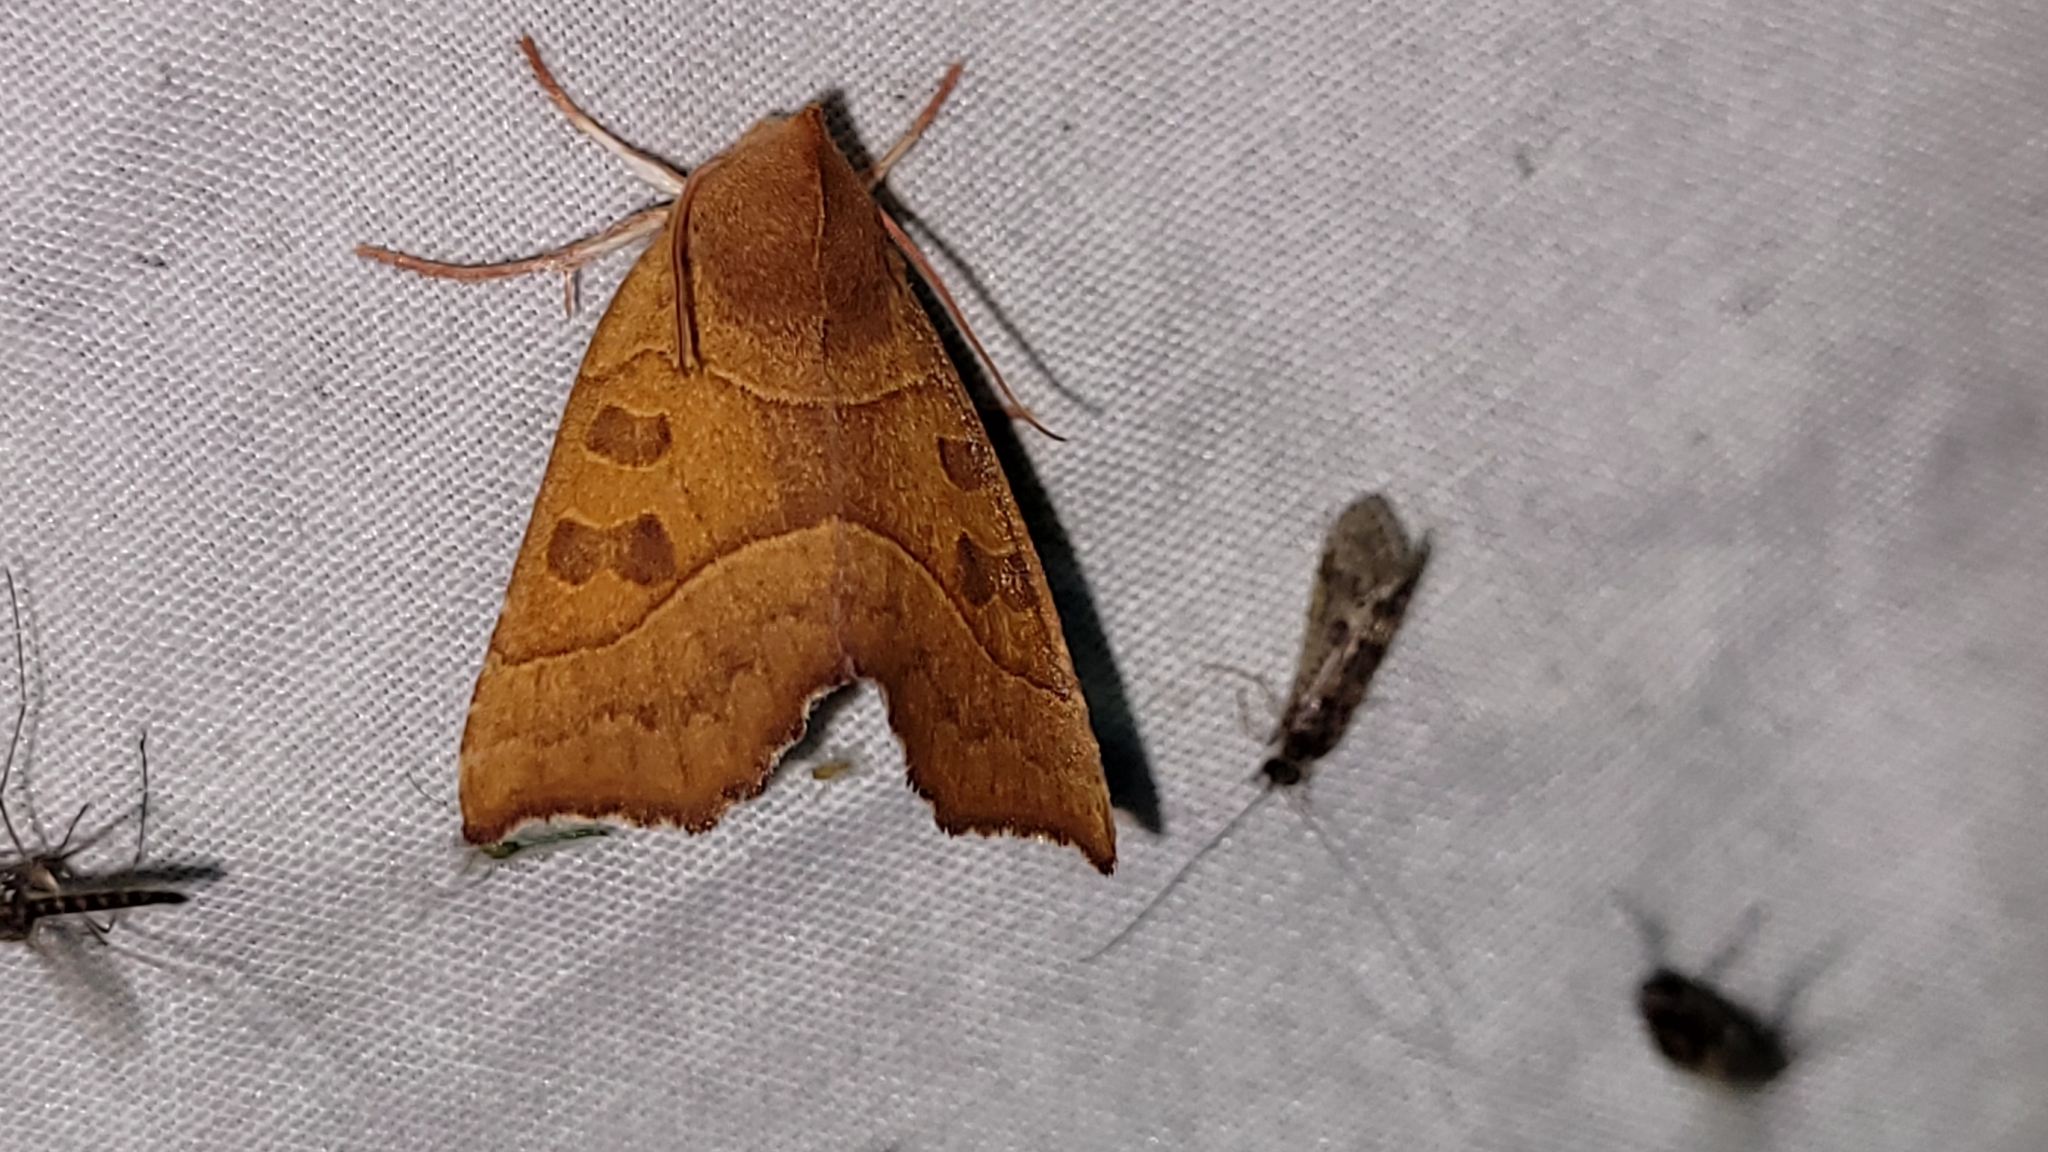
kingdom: Animalia
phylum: Arthropoda
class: Insecta
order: Lepidoptera
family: Noctuidae
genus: Eucirroedia
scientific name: Eucirroedia pampina
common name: Scalloped sallow
